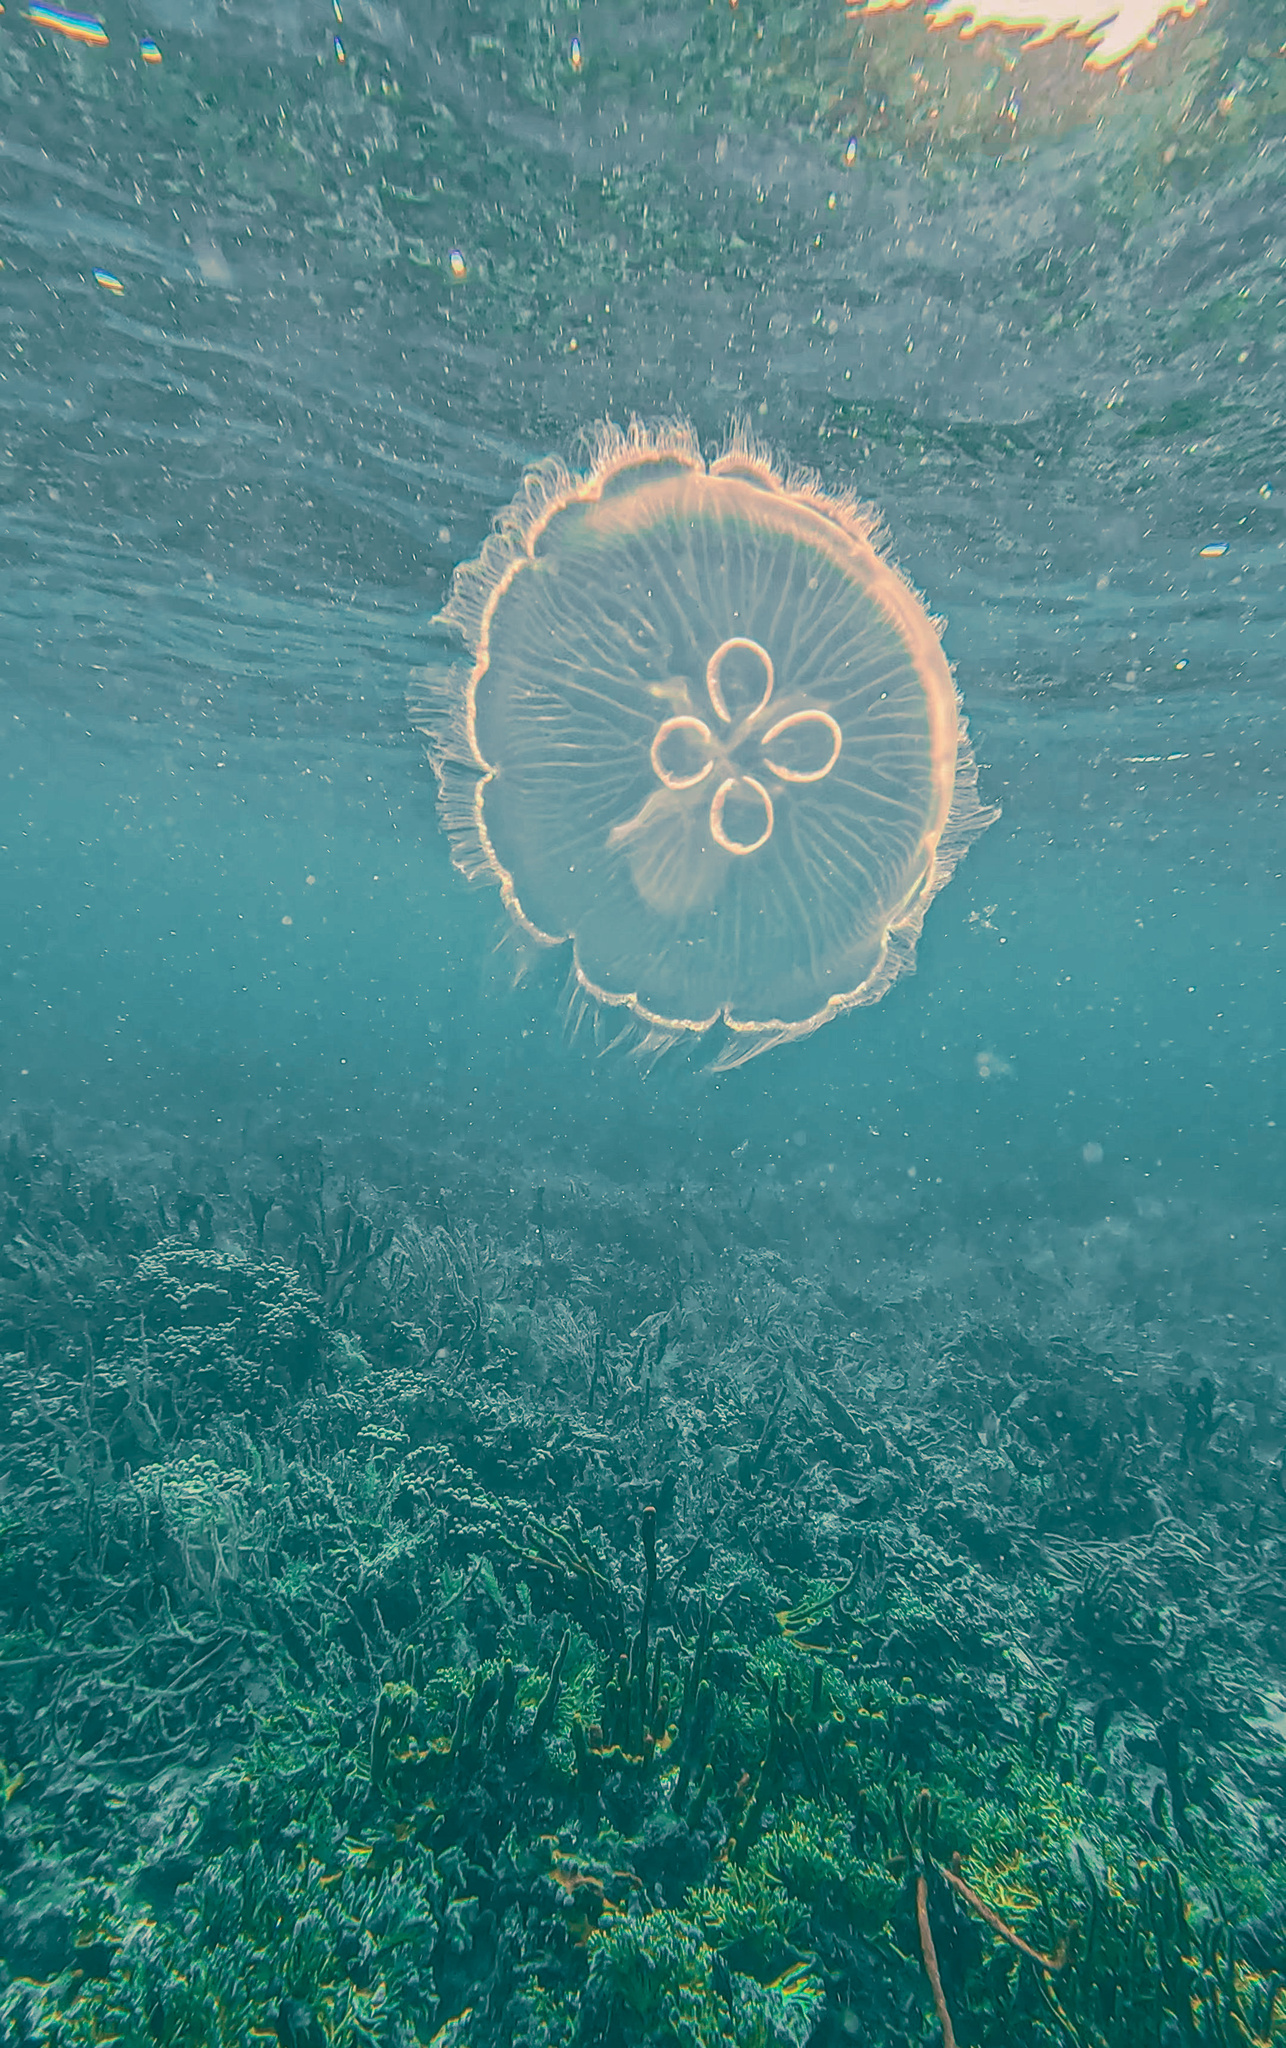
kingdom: Animalia
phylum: Cnidaria
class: Scyphozoa
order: Semaeostomeae
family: Ulmaridae
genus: Aurelia
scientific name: Aurelia marginalis
